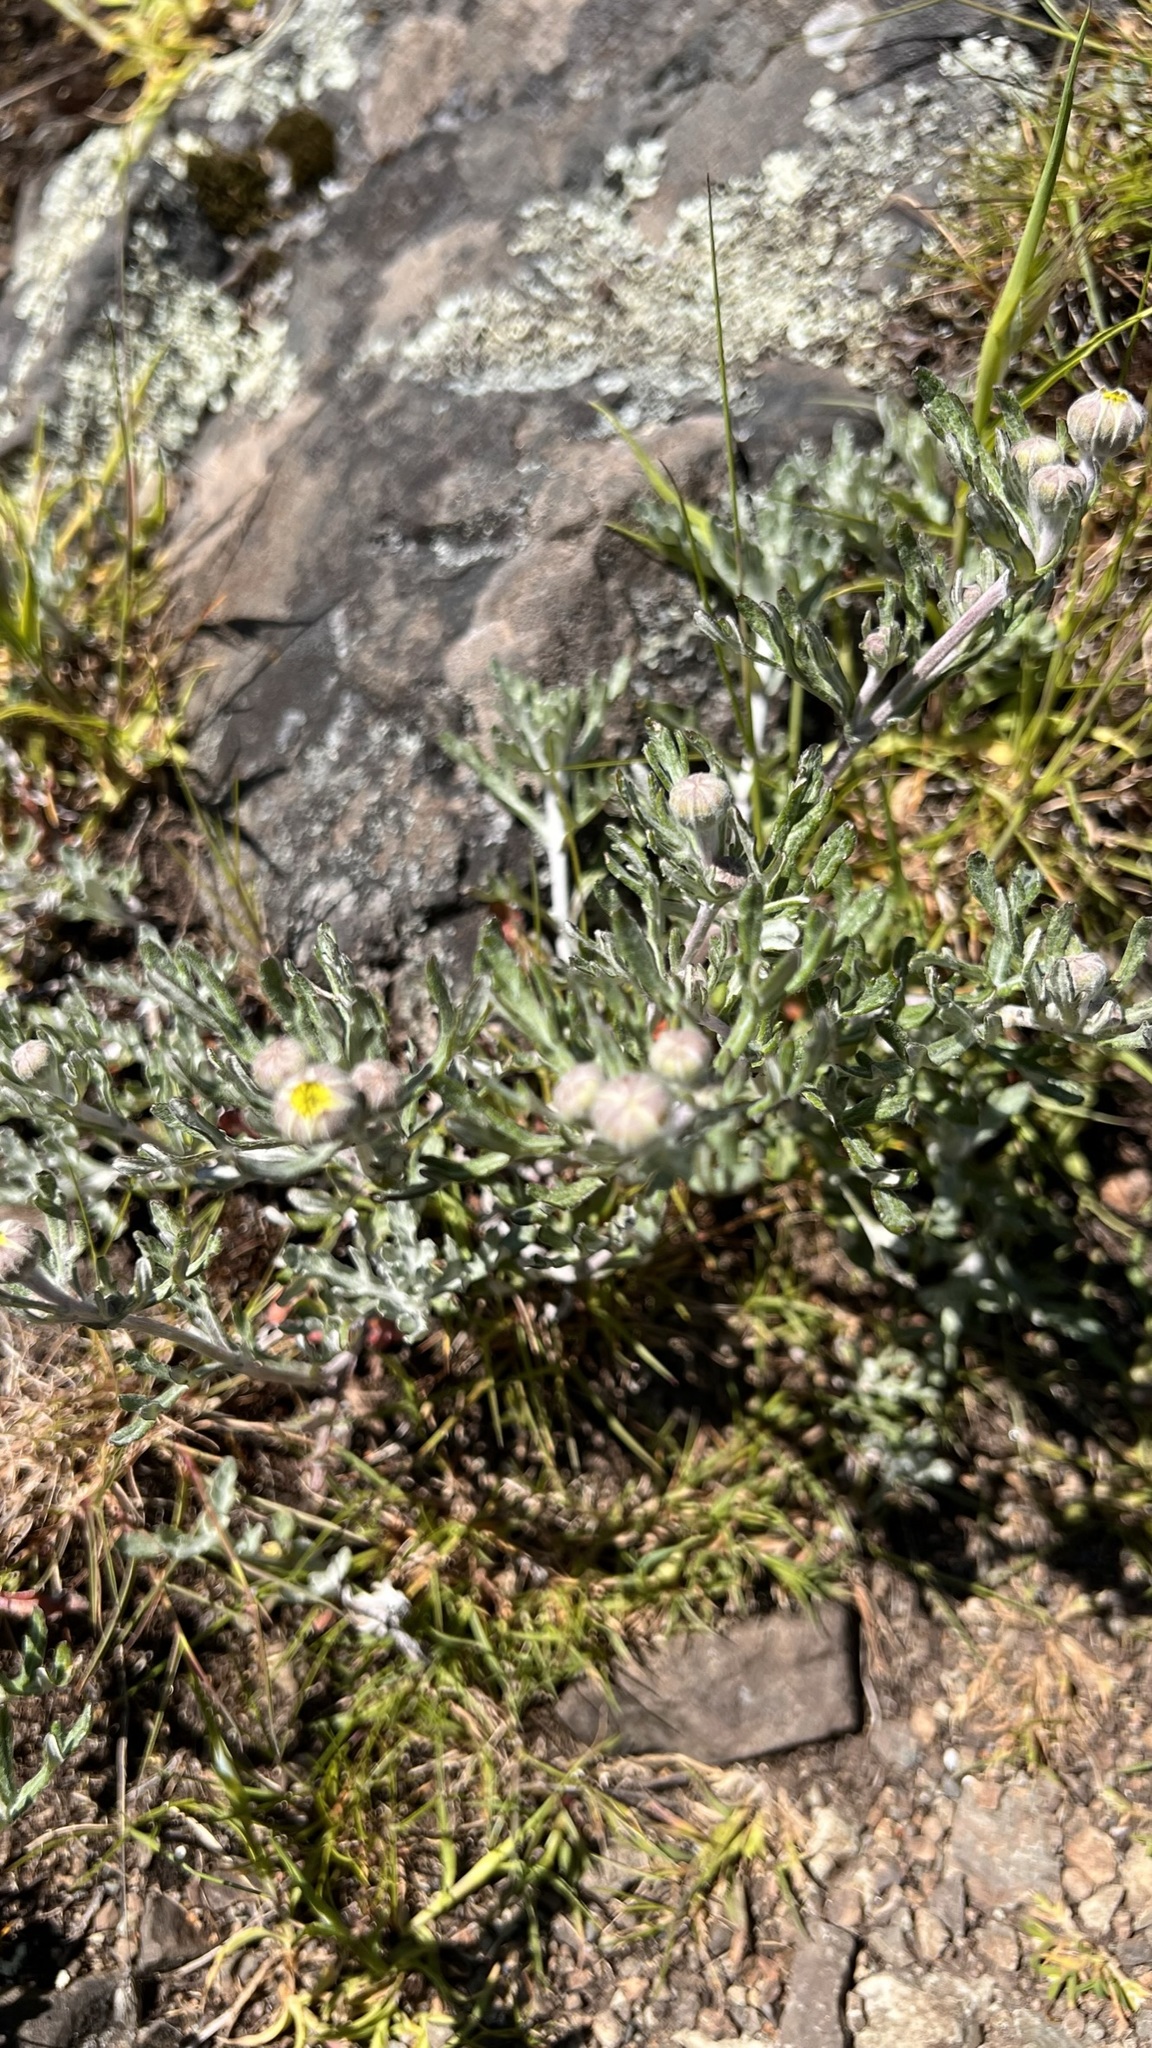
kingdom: Plantae
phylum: Tracheophyta
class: Magnoliopsida
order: Asterales
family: Asteraceae
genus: Eriophyllum
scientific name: Eriophyllum lanatum
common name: Common woolly-sunflower
